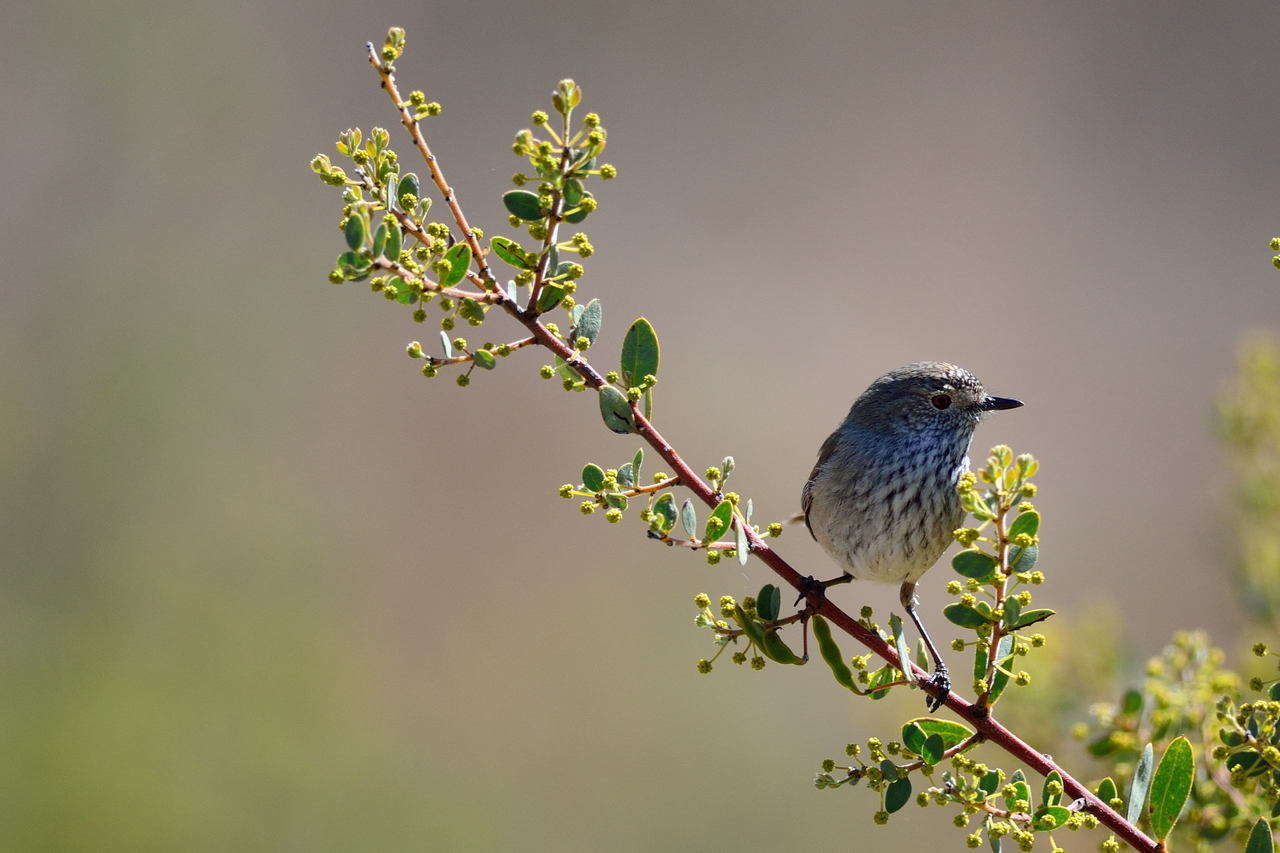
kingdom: Animalia
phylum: Chordata
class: Aves
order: Passeriformes
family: Acanthizidae
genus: Acanthiza
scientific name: Acanthiza apicalis
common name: Inland thornbill
